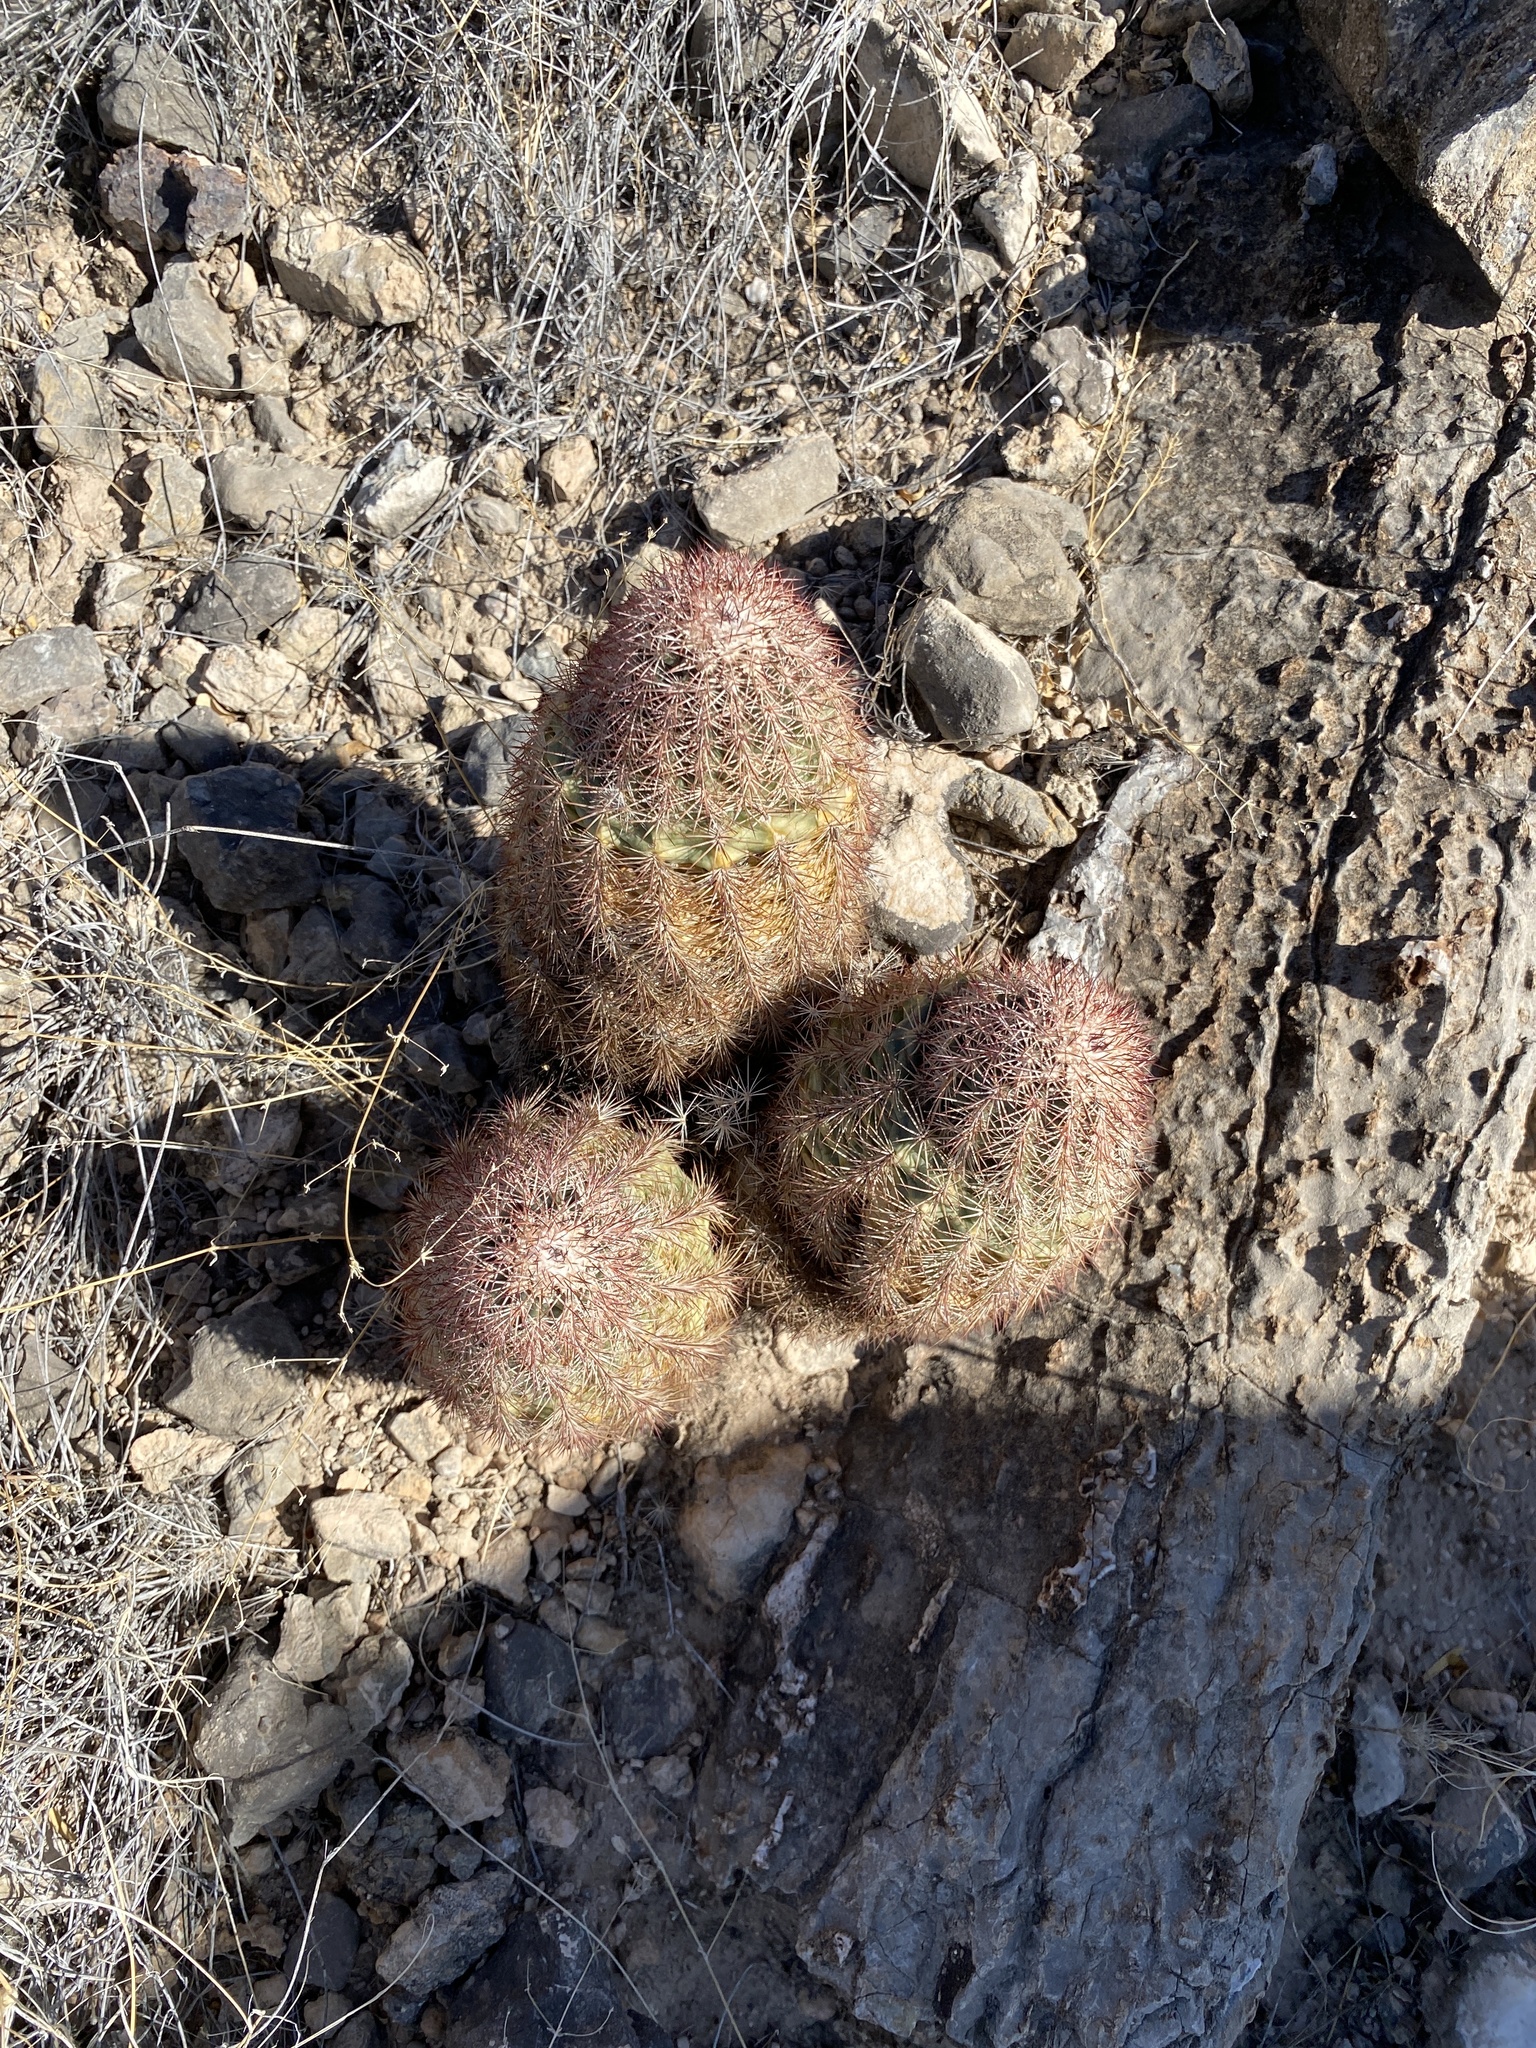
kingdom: Plantae
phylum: Tracheophyta
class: Magnoliopsida
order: Caryophyllales
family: Cactaceae
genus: Echinocereus
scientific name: Echinocereus dasyacanthus
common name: Spiny hedgehog cactus
